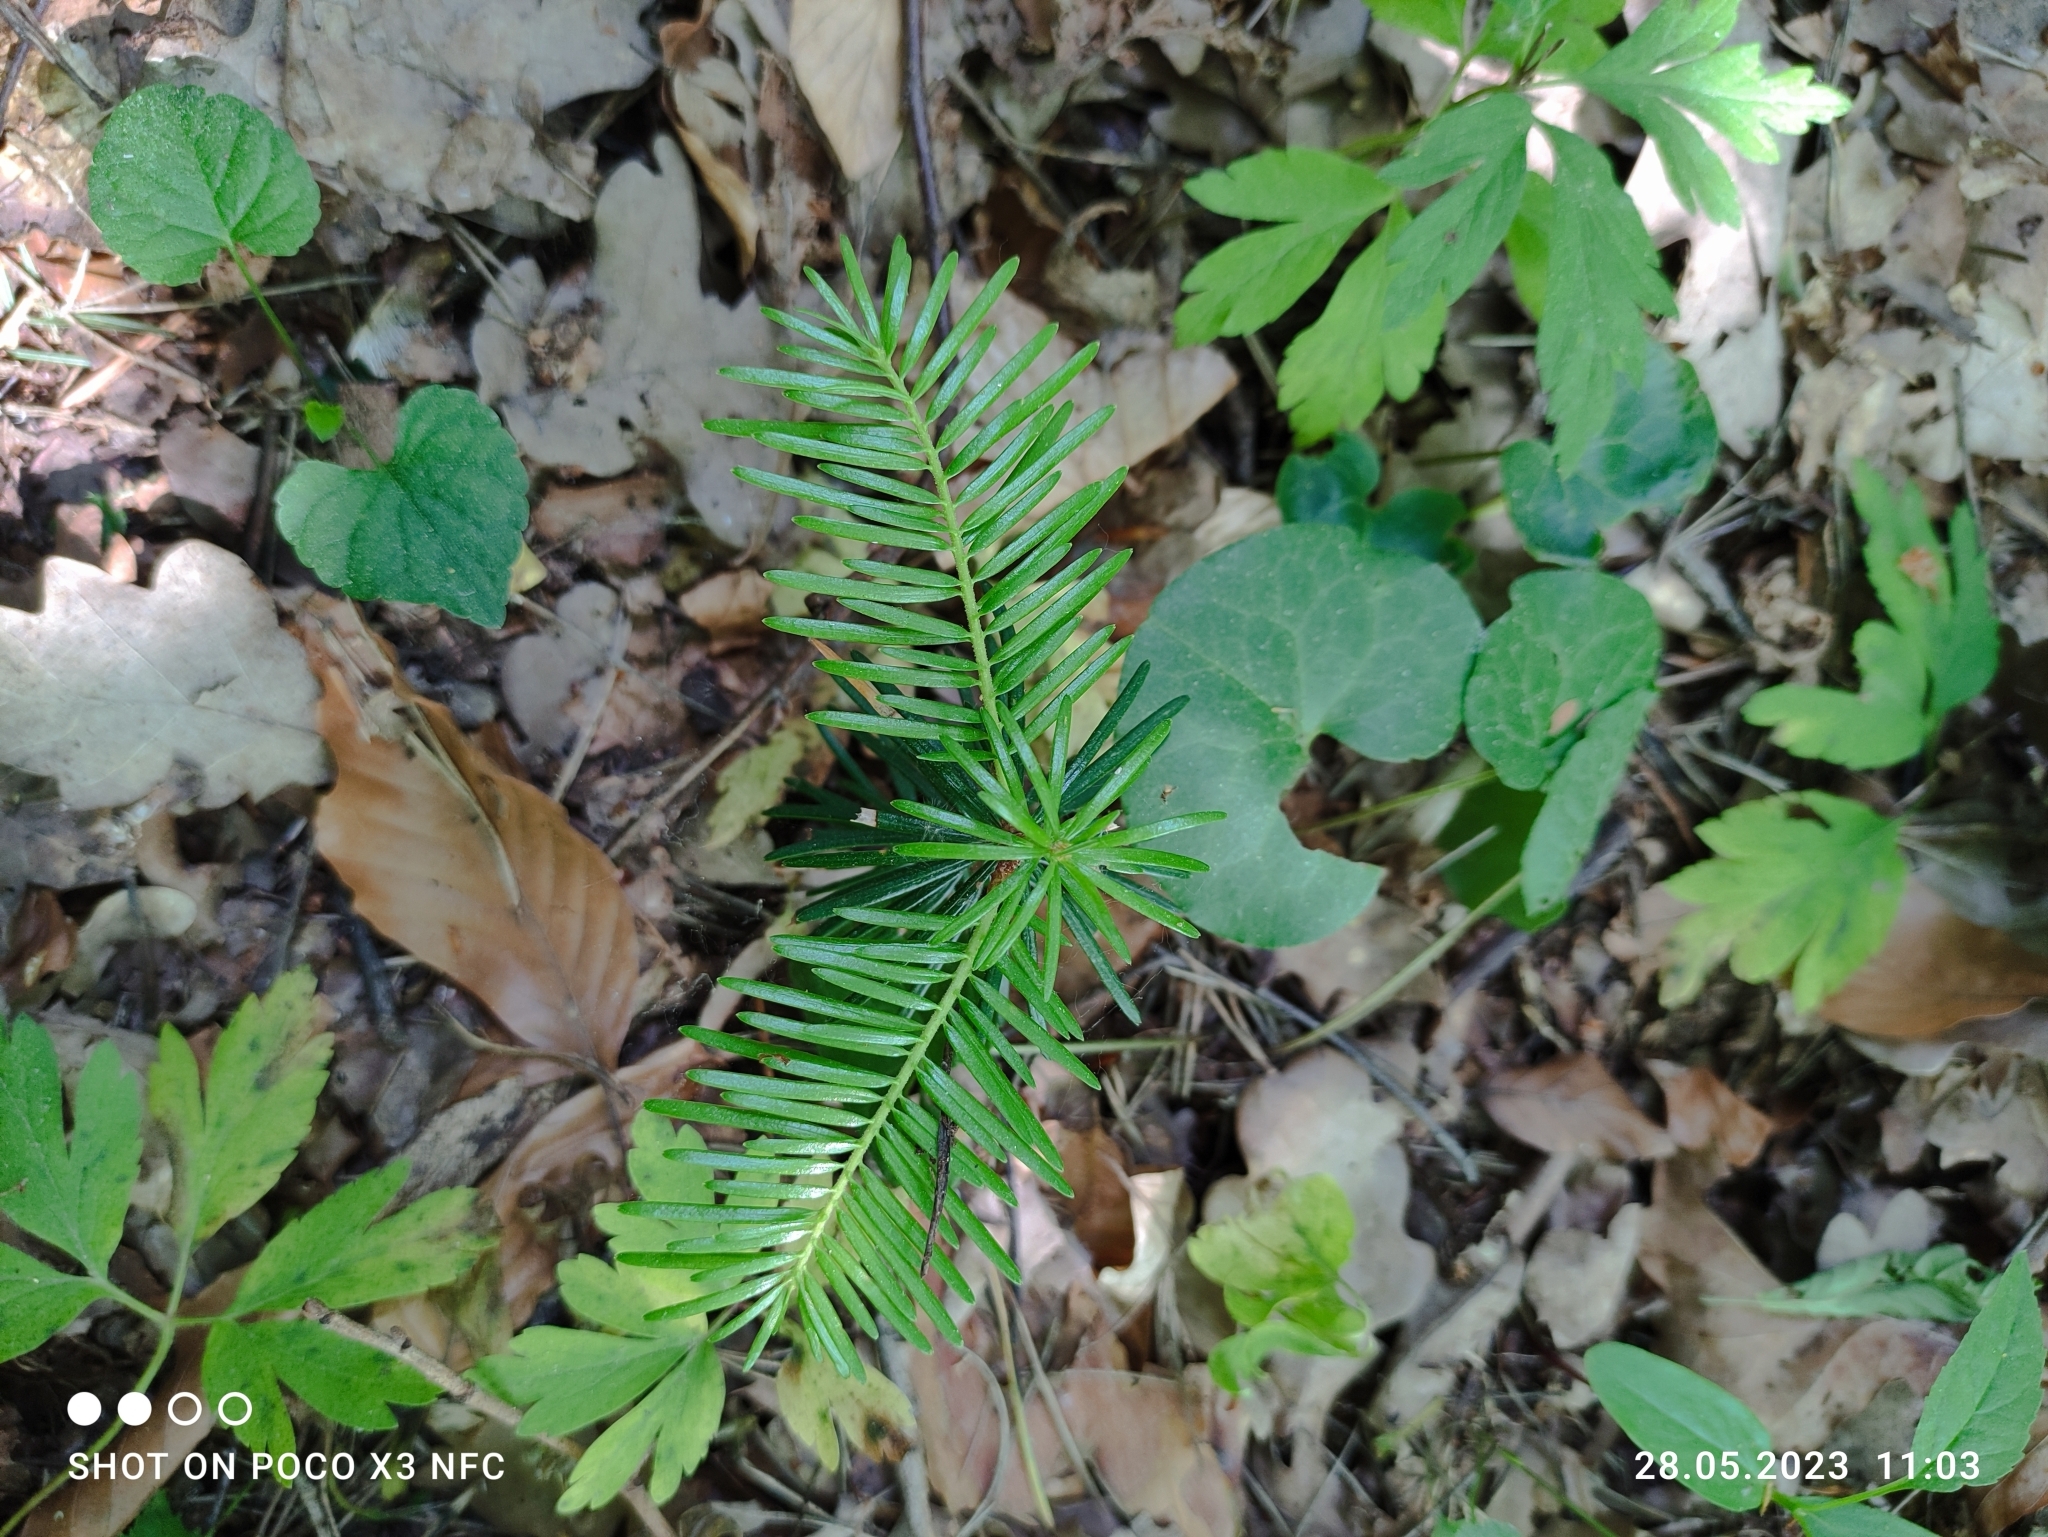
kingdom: Plantae
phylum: Tracheophyta
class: Pinopsida
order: Pinales
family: Pinaceae
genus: Abies
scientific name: Abies alba
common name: Silver fir
